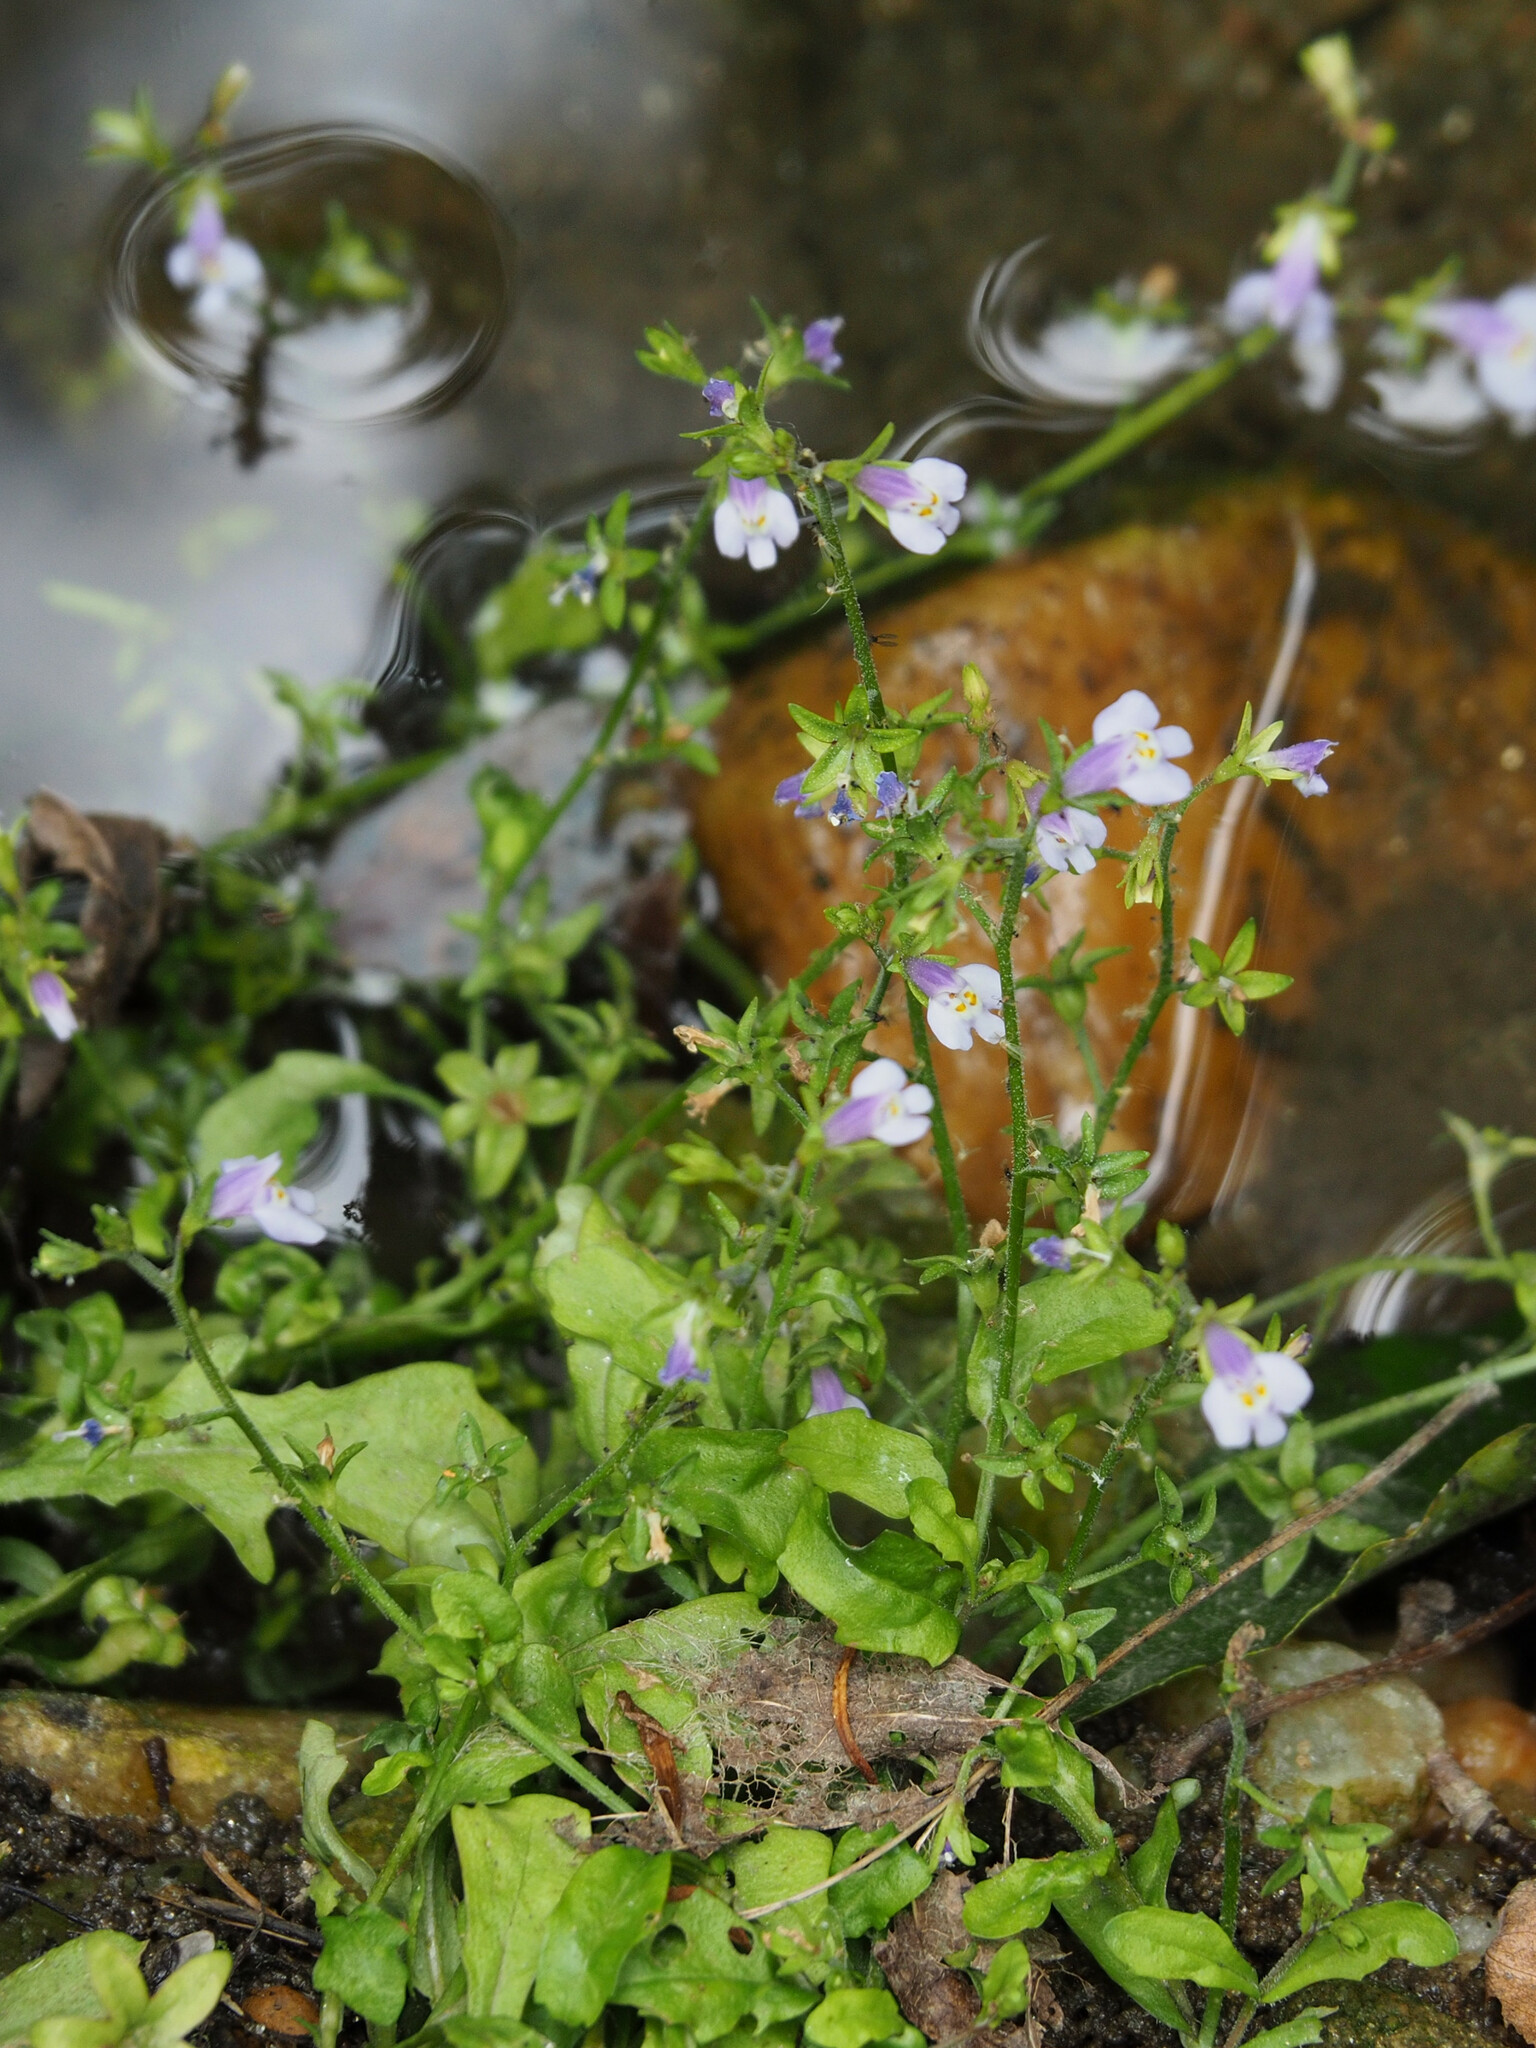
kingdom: Plantae
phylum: Tracheophyta
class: Magnoliopsida
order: Lamiales
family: Mazaceae
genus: Mazus
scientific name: Mazus pumilus
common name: Japanese mazus
